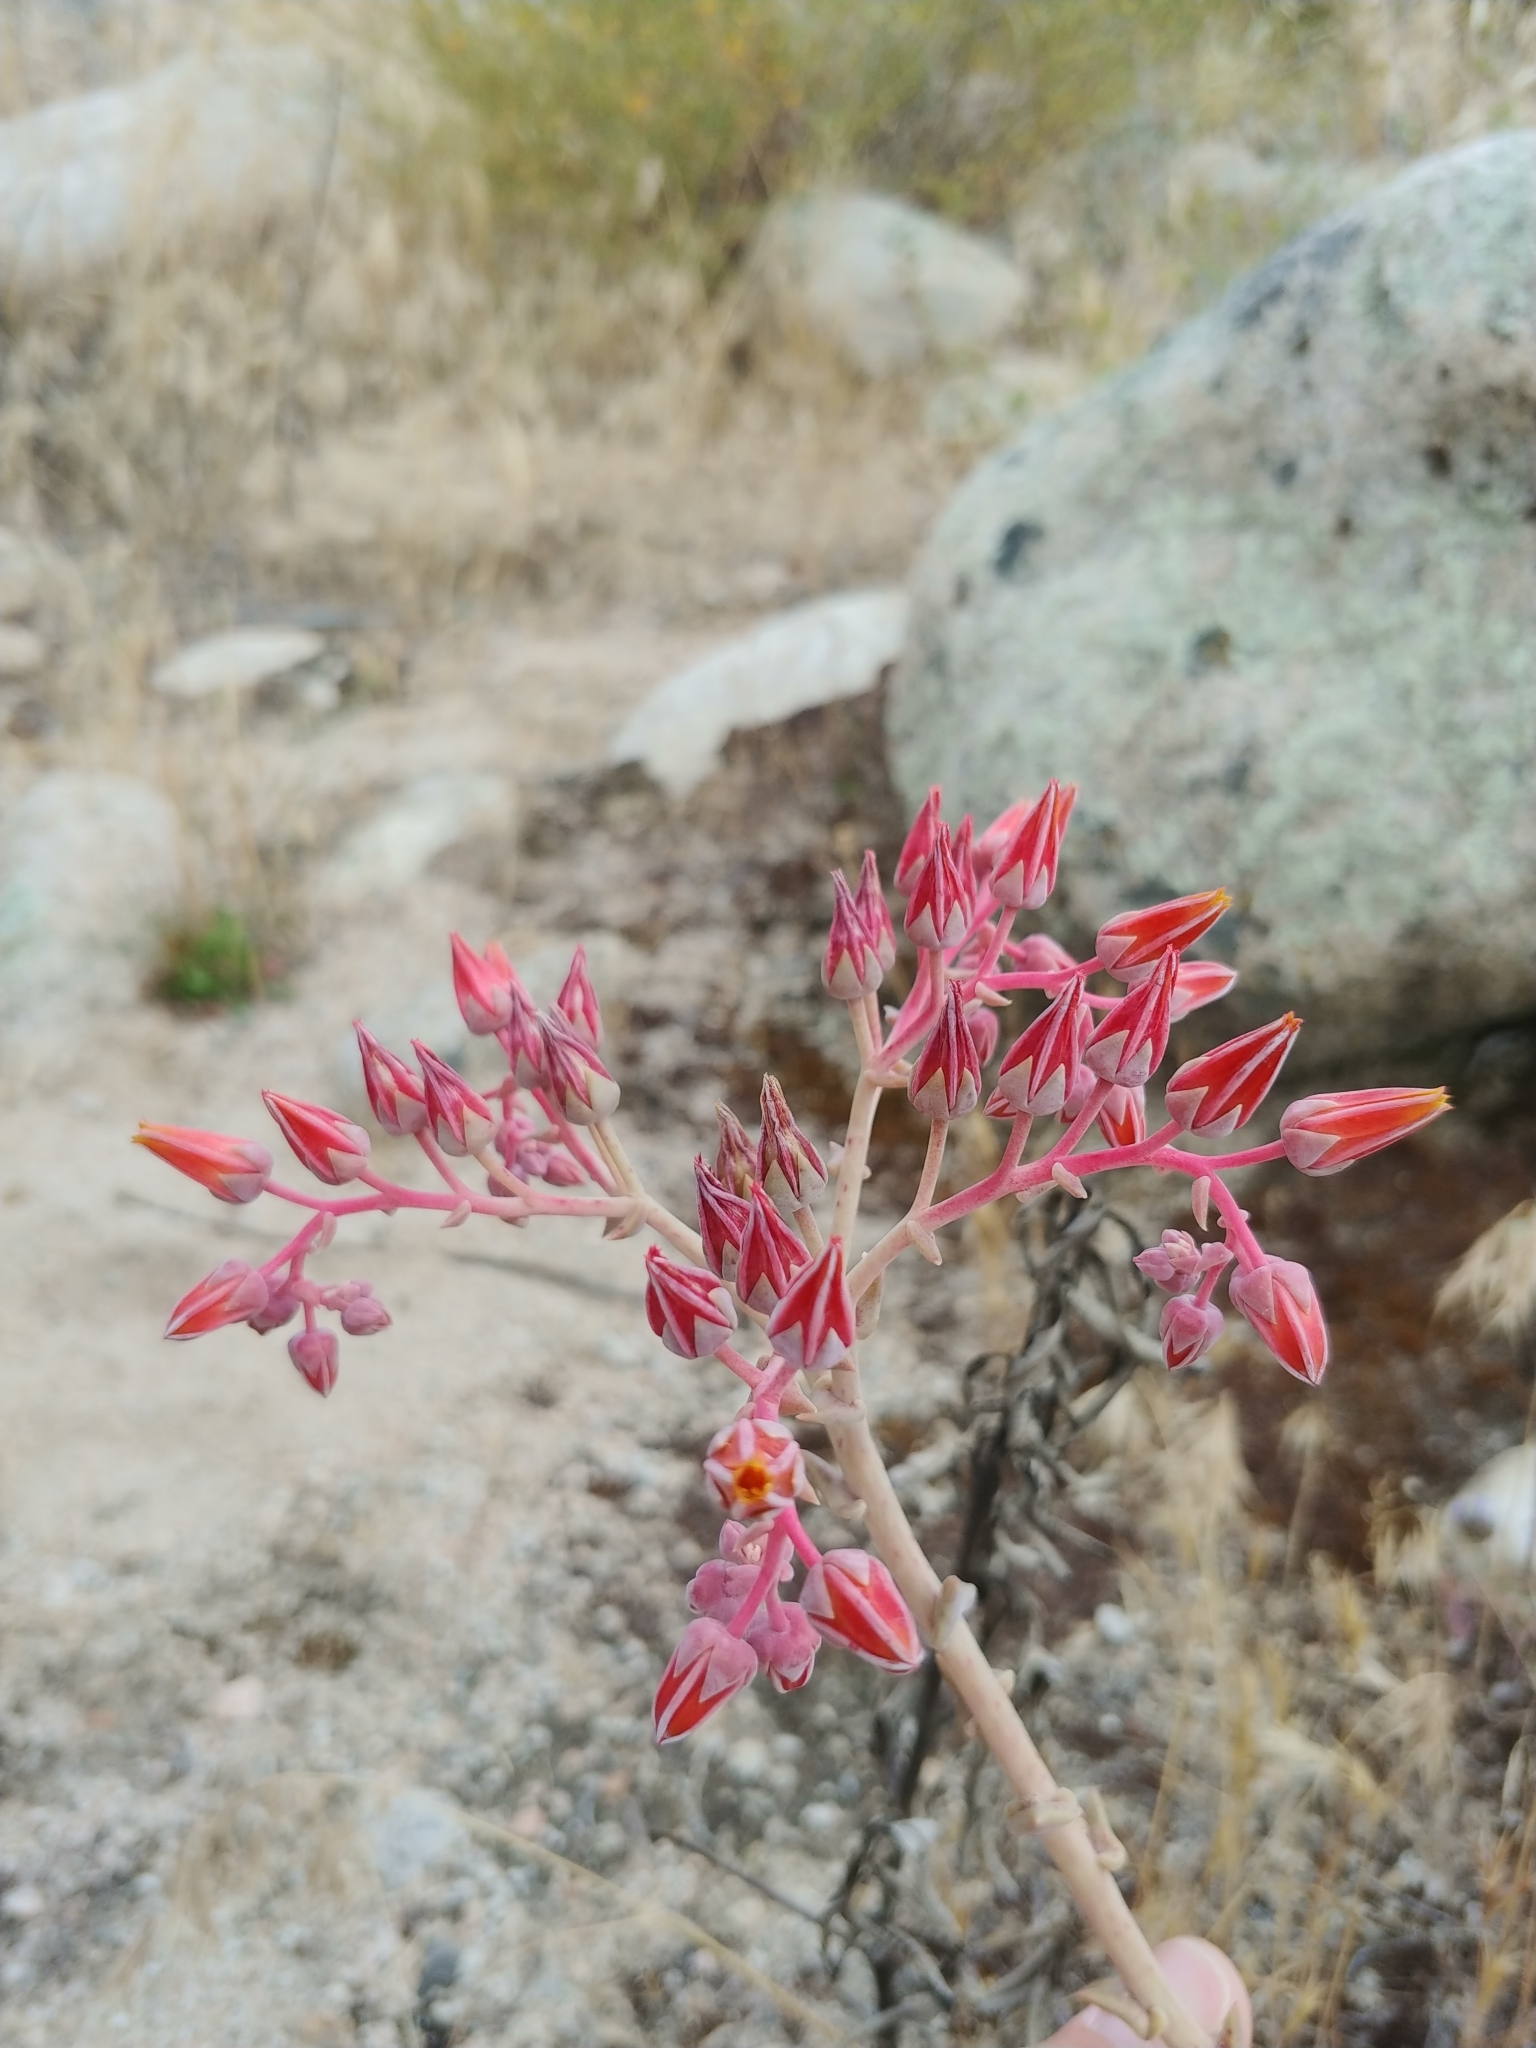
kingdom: Plantae
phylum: Tracheophyta
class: Magnoliopsida
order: Saxifragales
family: Crassulaceae
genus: Dudleya
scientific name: Dudleya lanceolata
